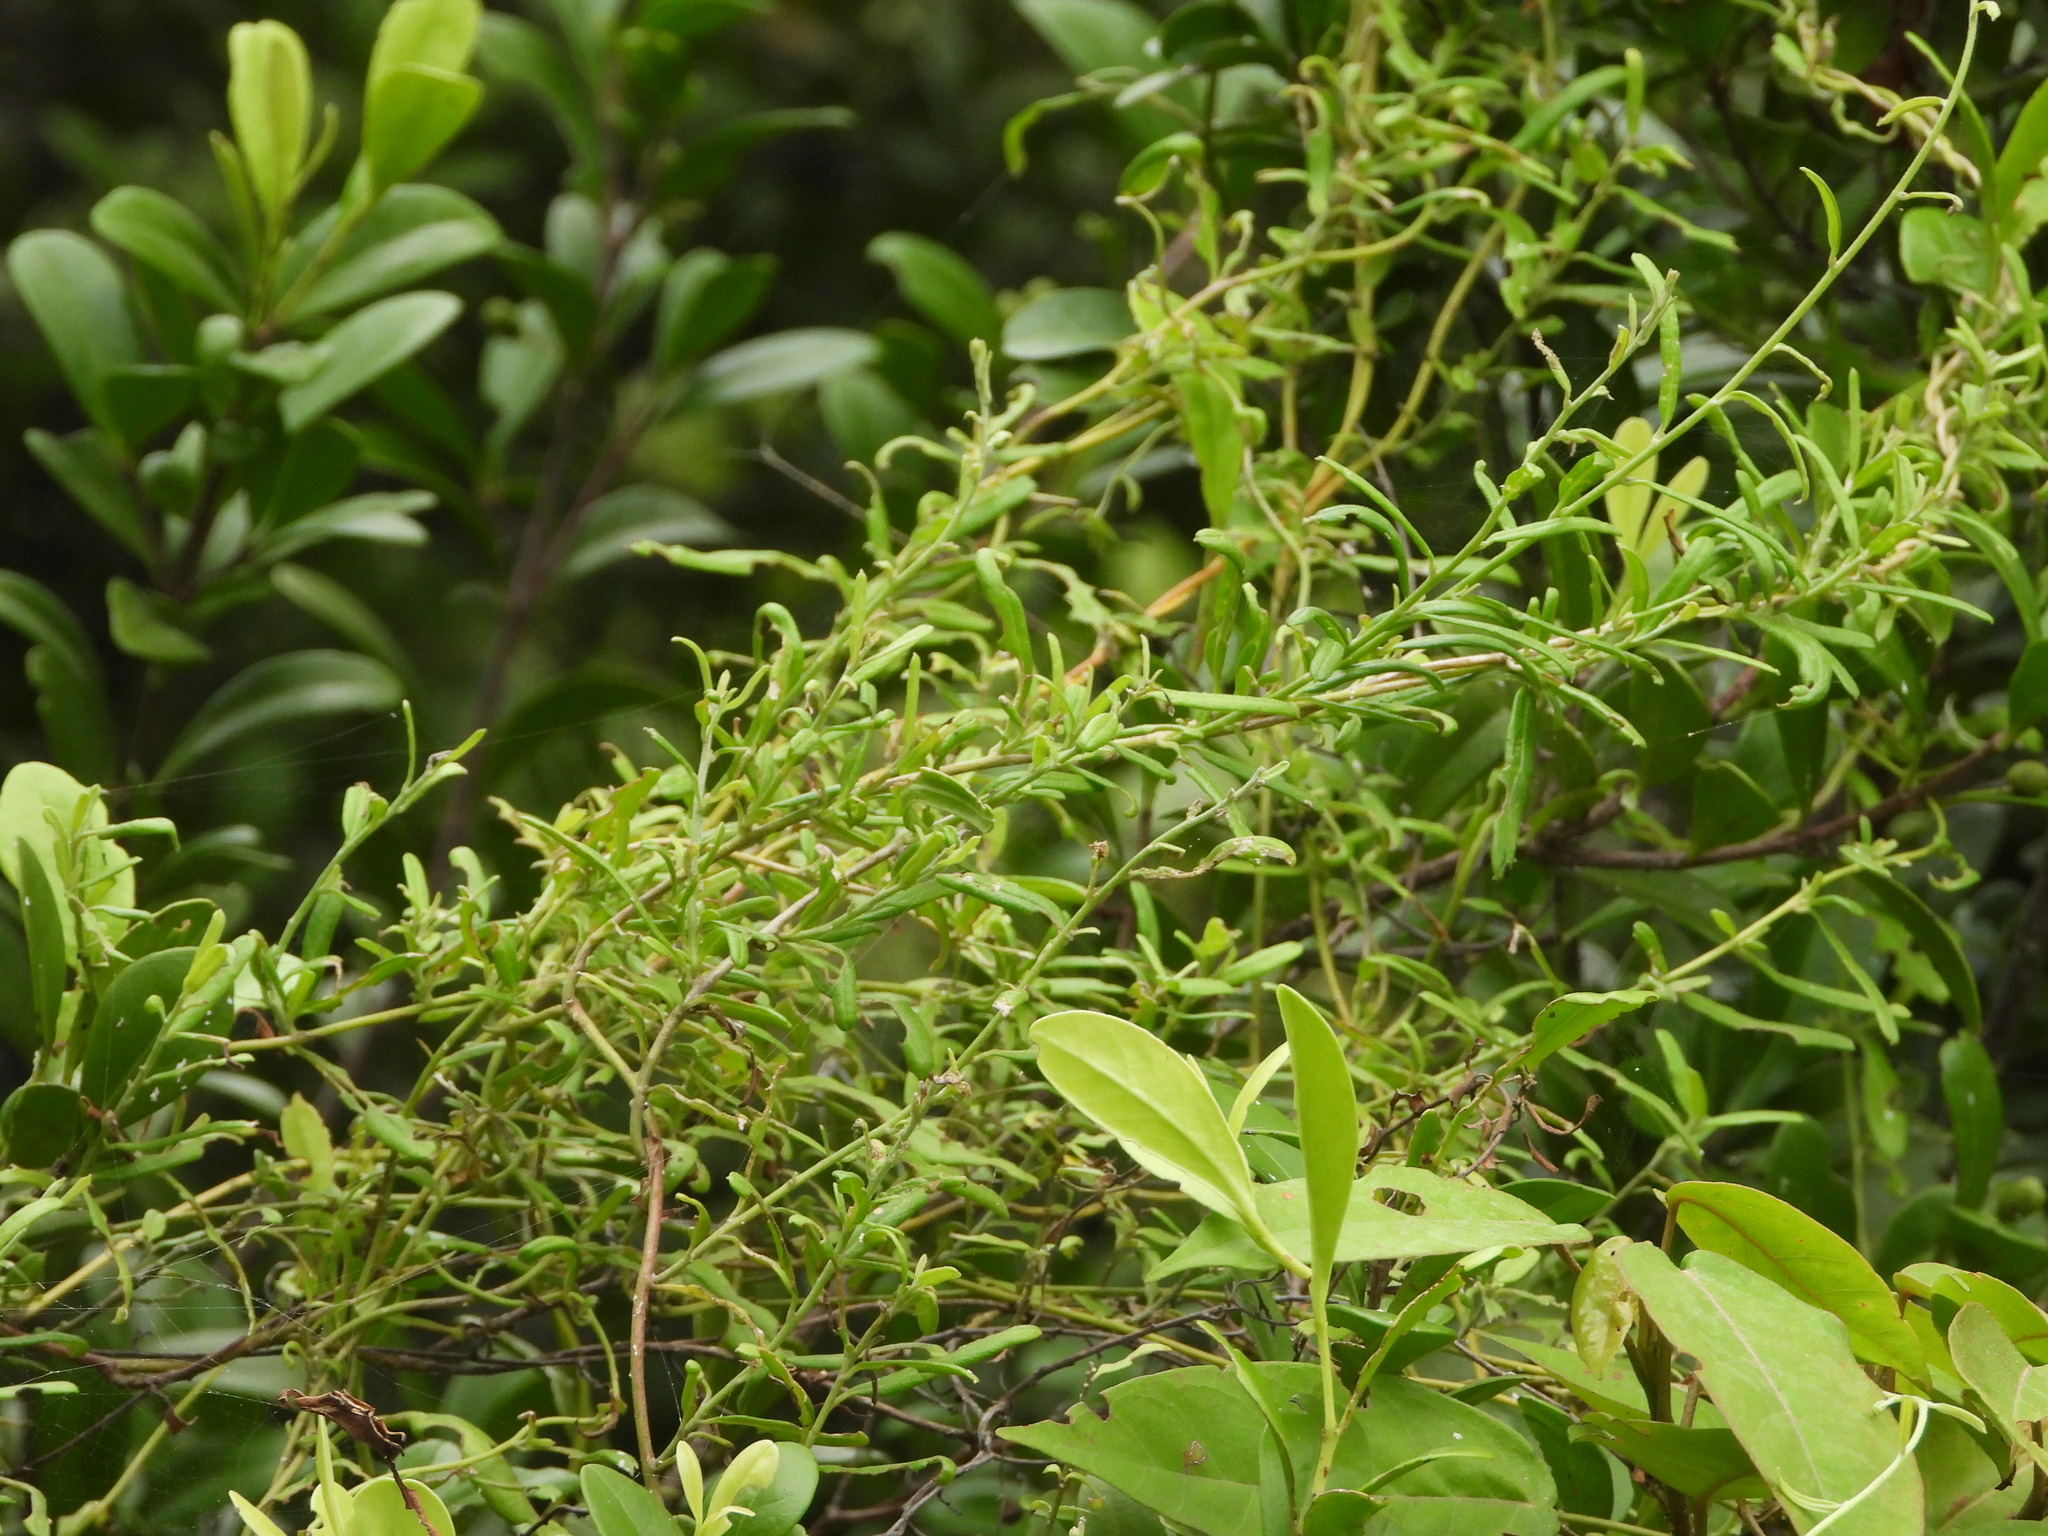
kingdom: Plantae
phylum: Tracheophyta
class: Magnoliopsida
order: Solanales
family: Convolvulaceae
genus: Jacquemontia
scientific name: Jacquemontia havanensis
